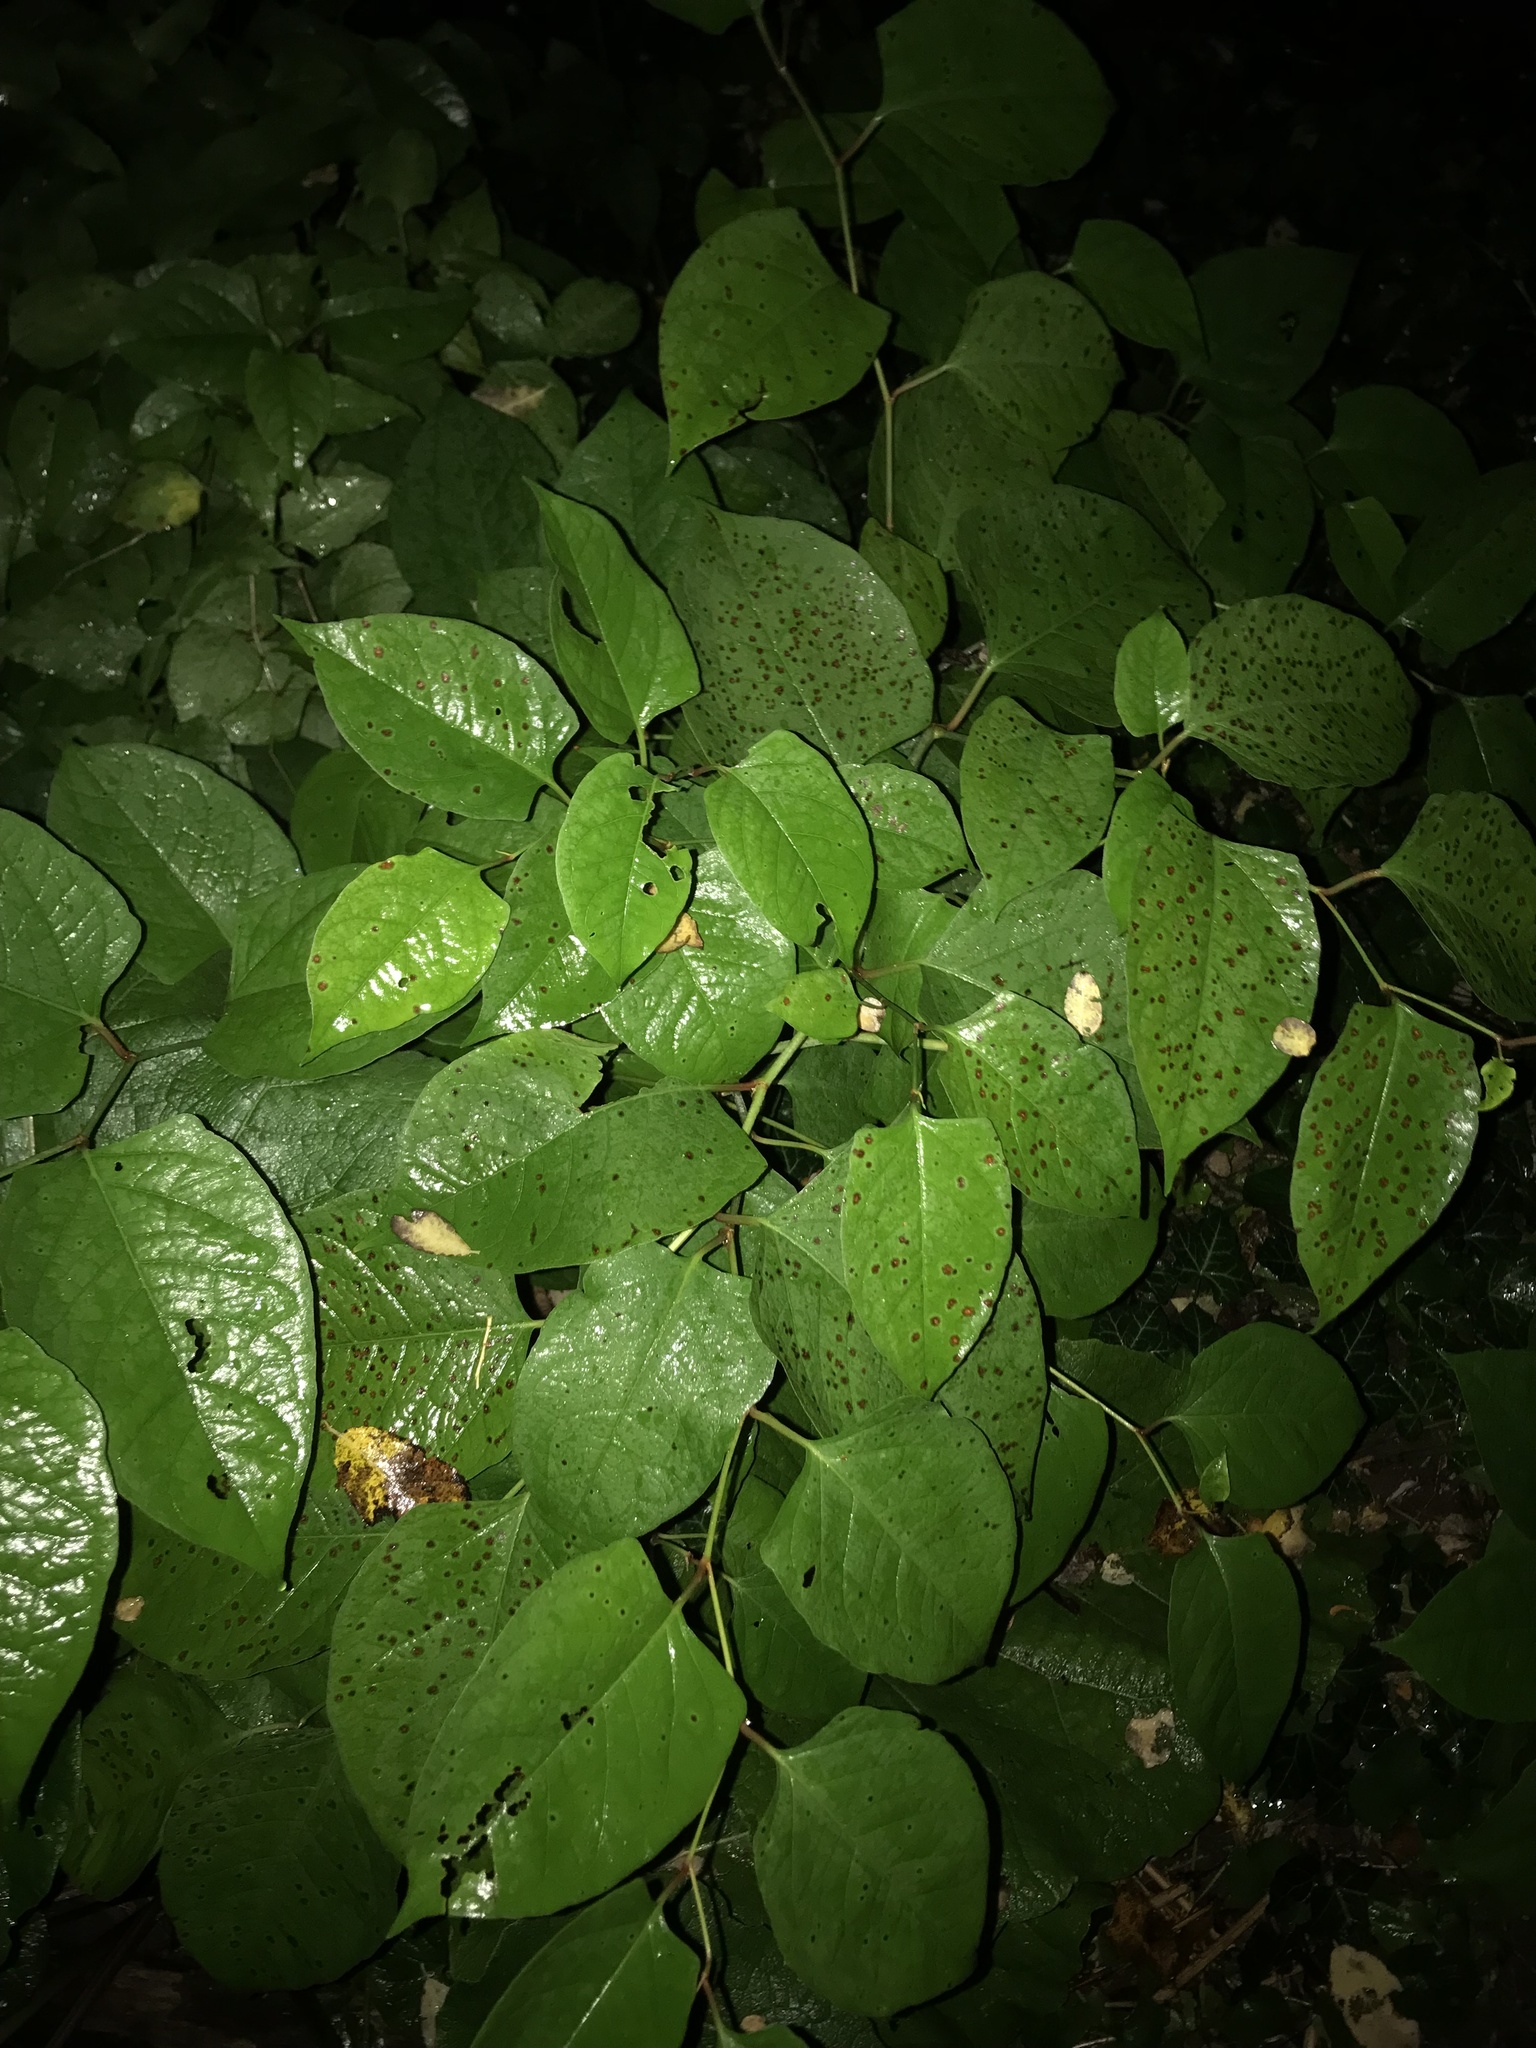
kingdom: Plantae
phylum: Tracheophyta
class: Magnoliopsida
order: Caryophyllales
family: Polygonaceae
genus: Reynoutria
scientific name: Reynoutria japonica
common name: Japanese knotweed
